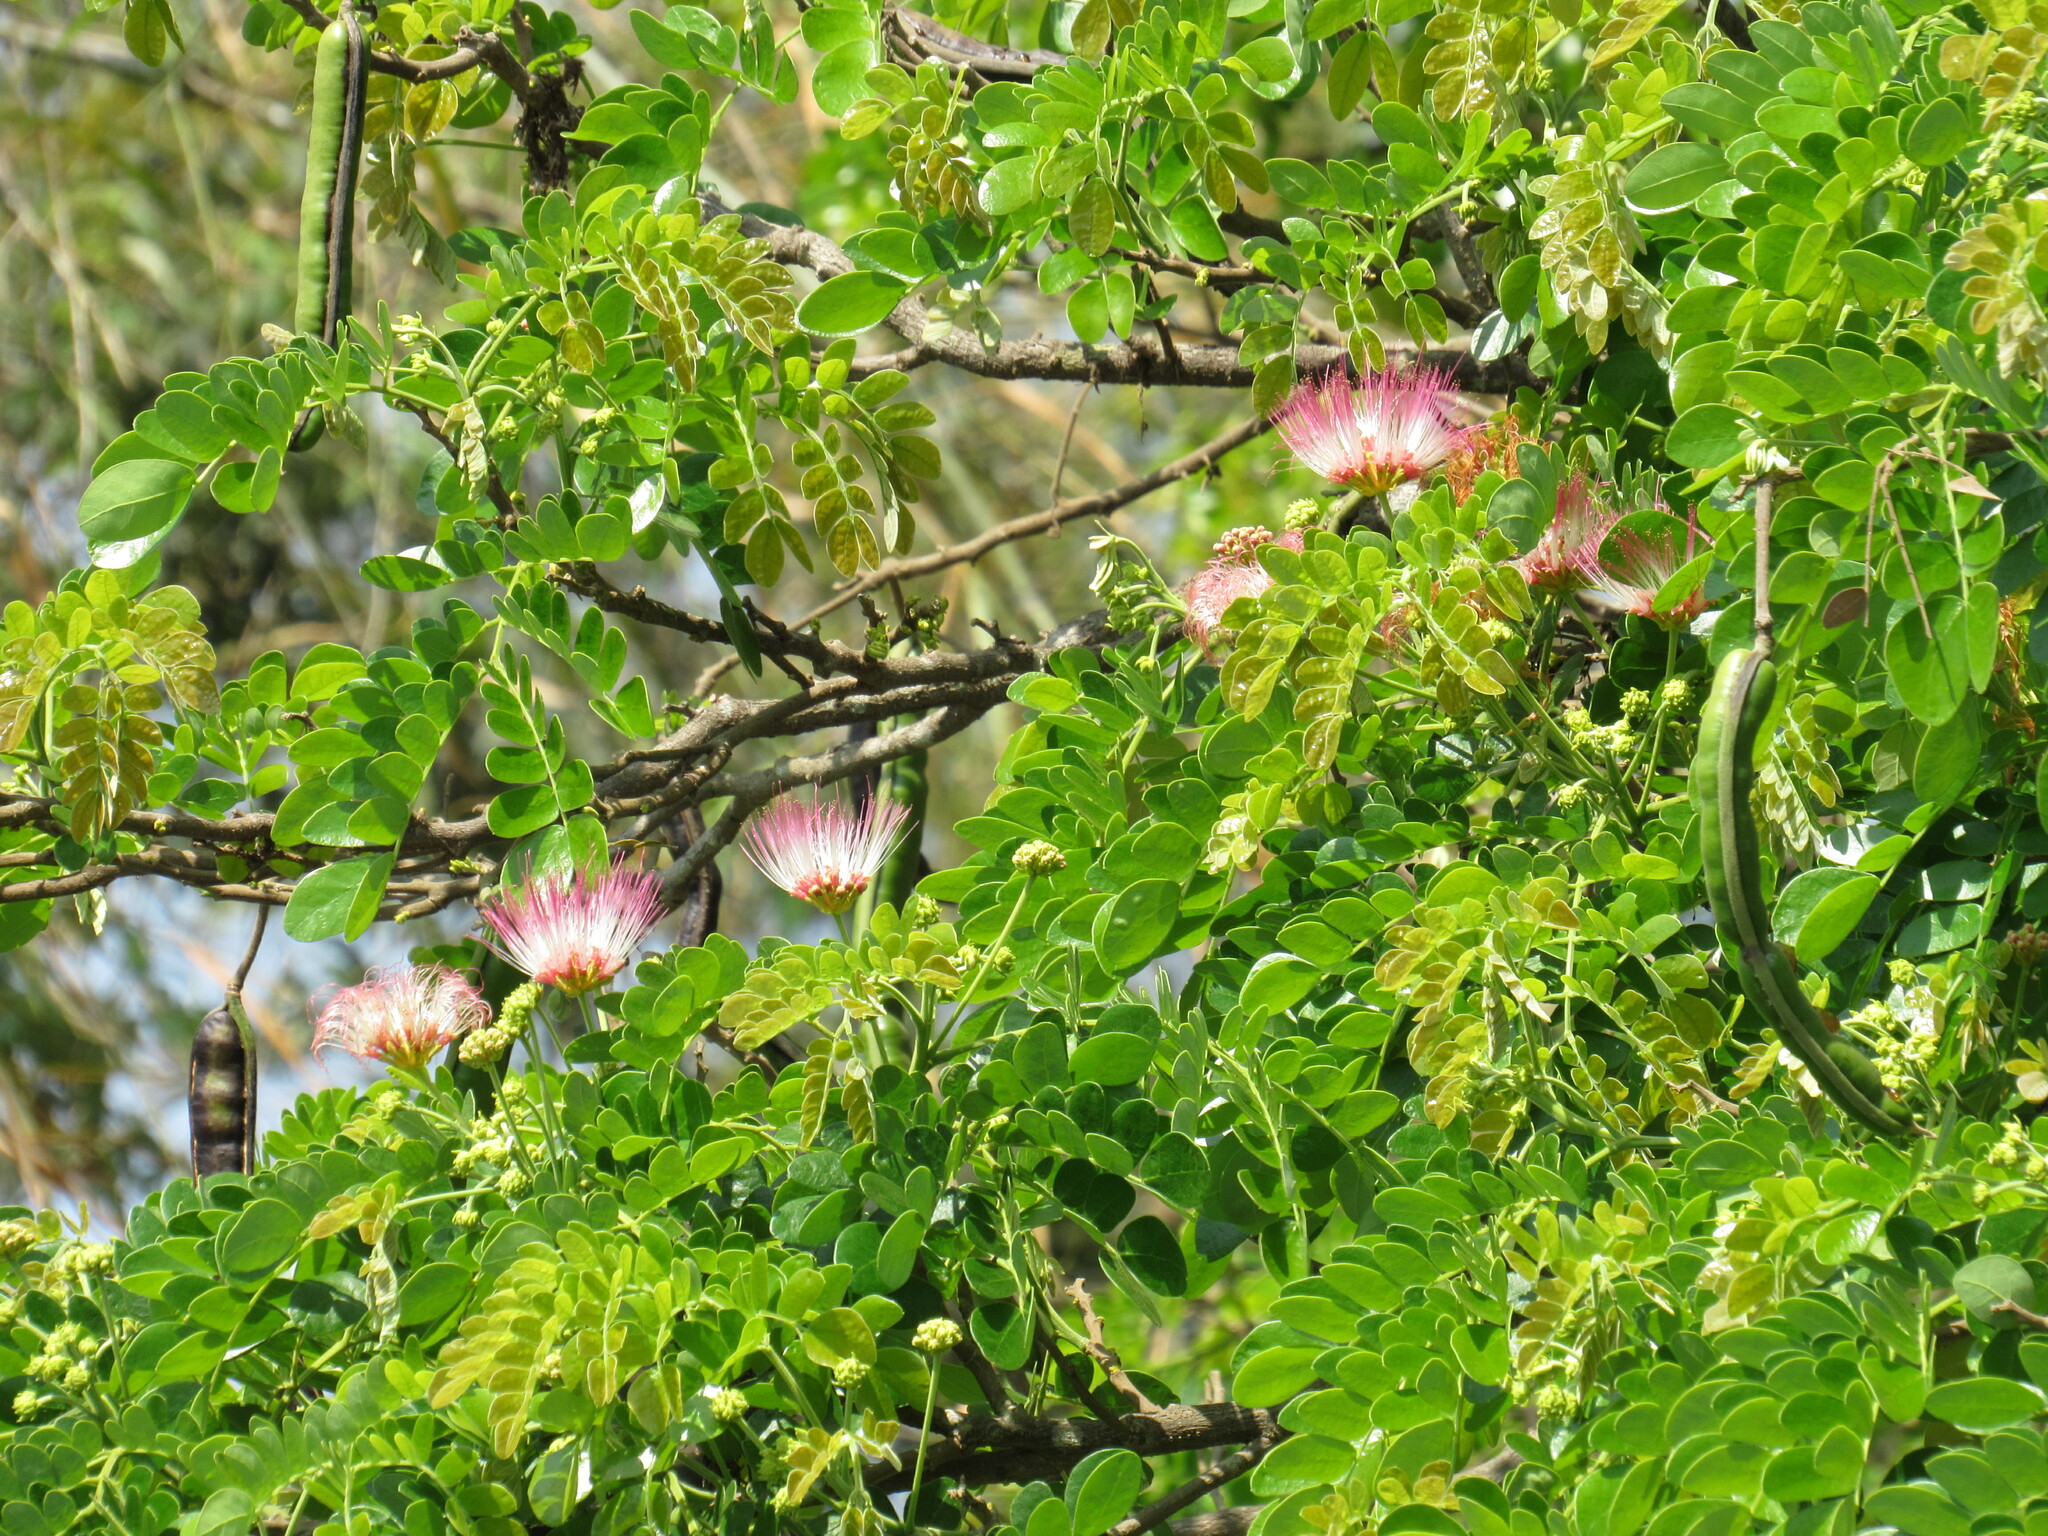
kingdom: Plantae
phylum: Tracheophyta
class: Magnoliopsida
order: Fabales
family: Fabaceae
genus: Samanea
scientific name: Samanea saman
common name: Raintree
